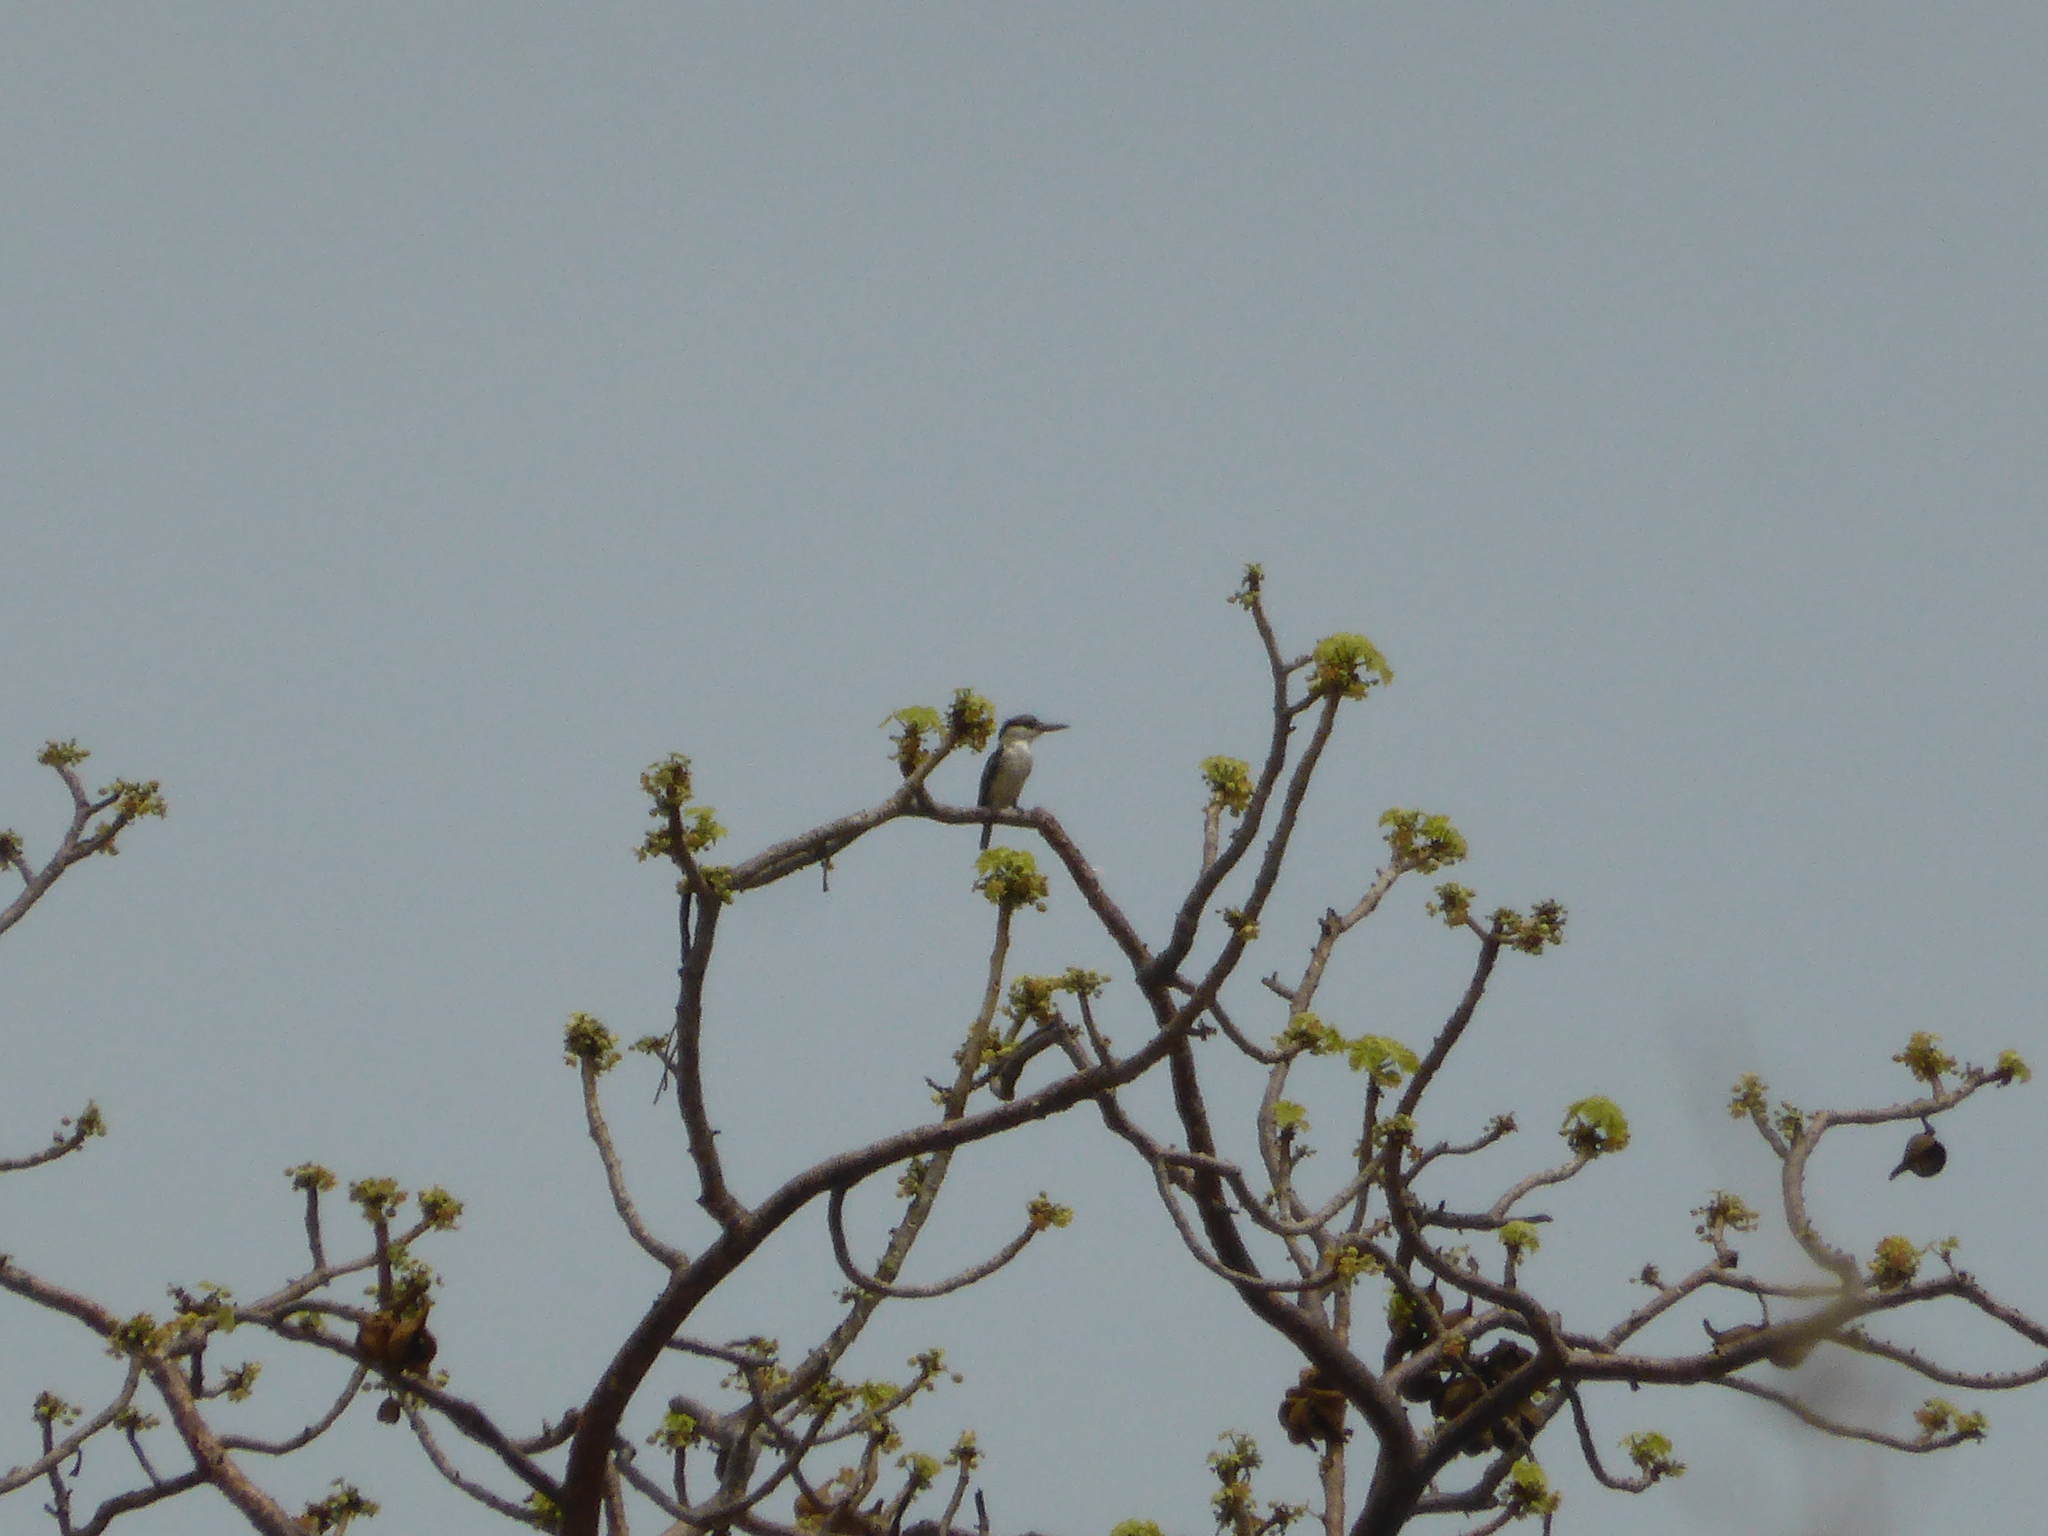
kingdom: Animalia
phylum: Chordata
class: Aves
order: Coraciiformes
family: Alcedinidae
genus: Halcyon
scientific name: Halcyon chelicuti
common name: Striped kingfisher
